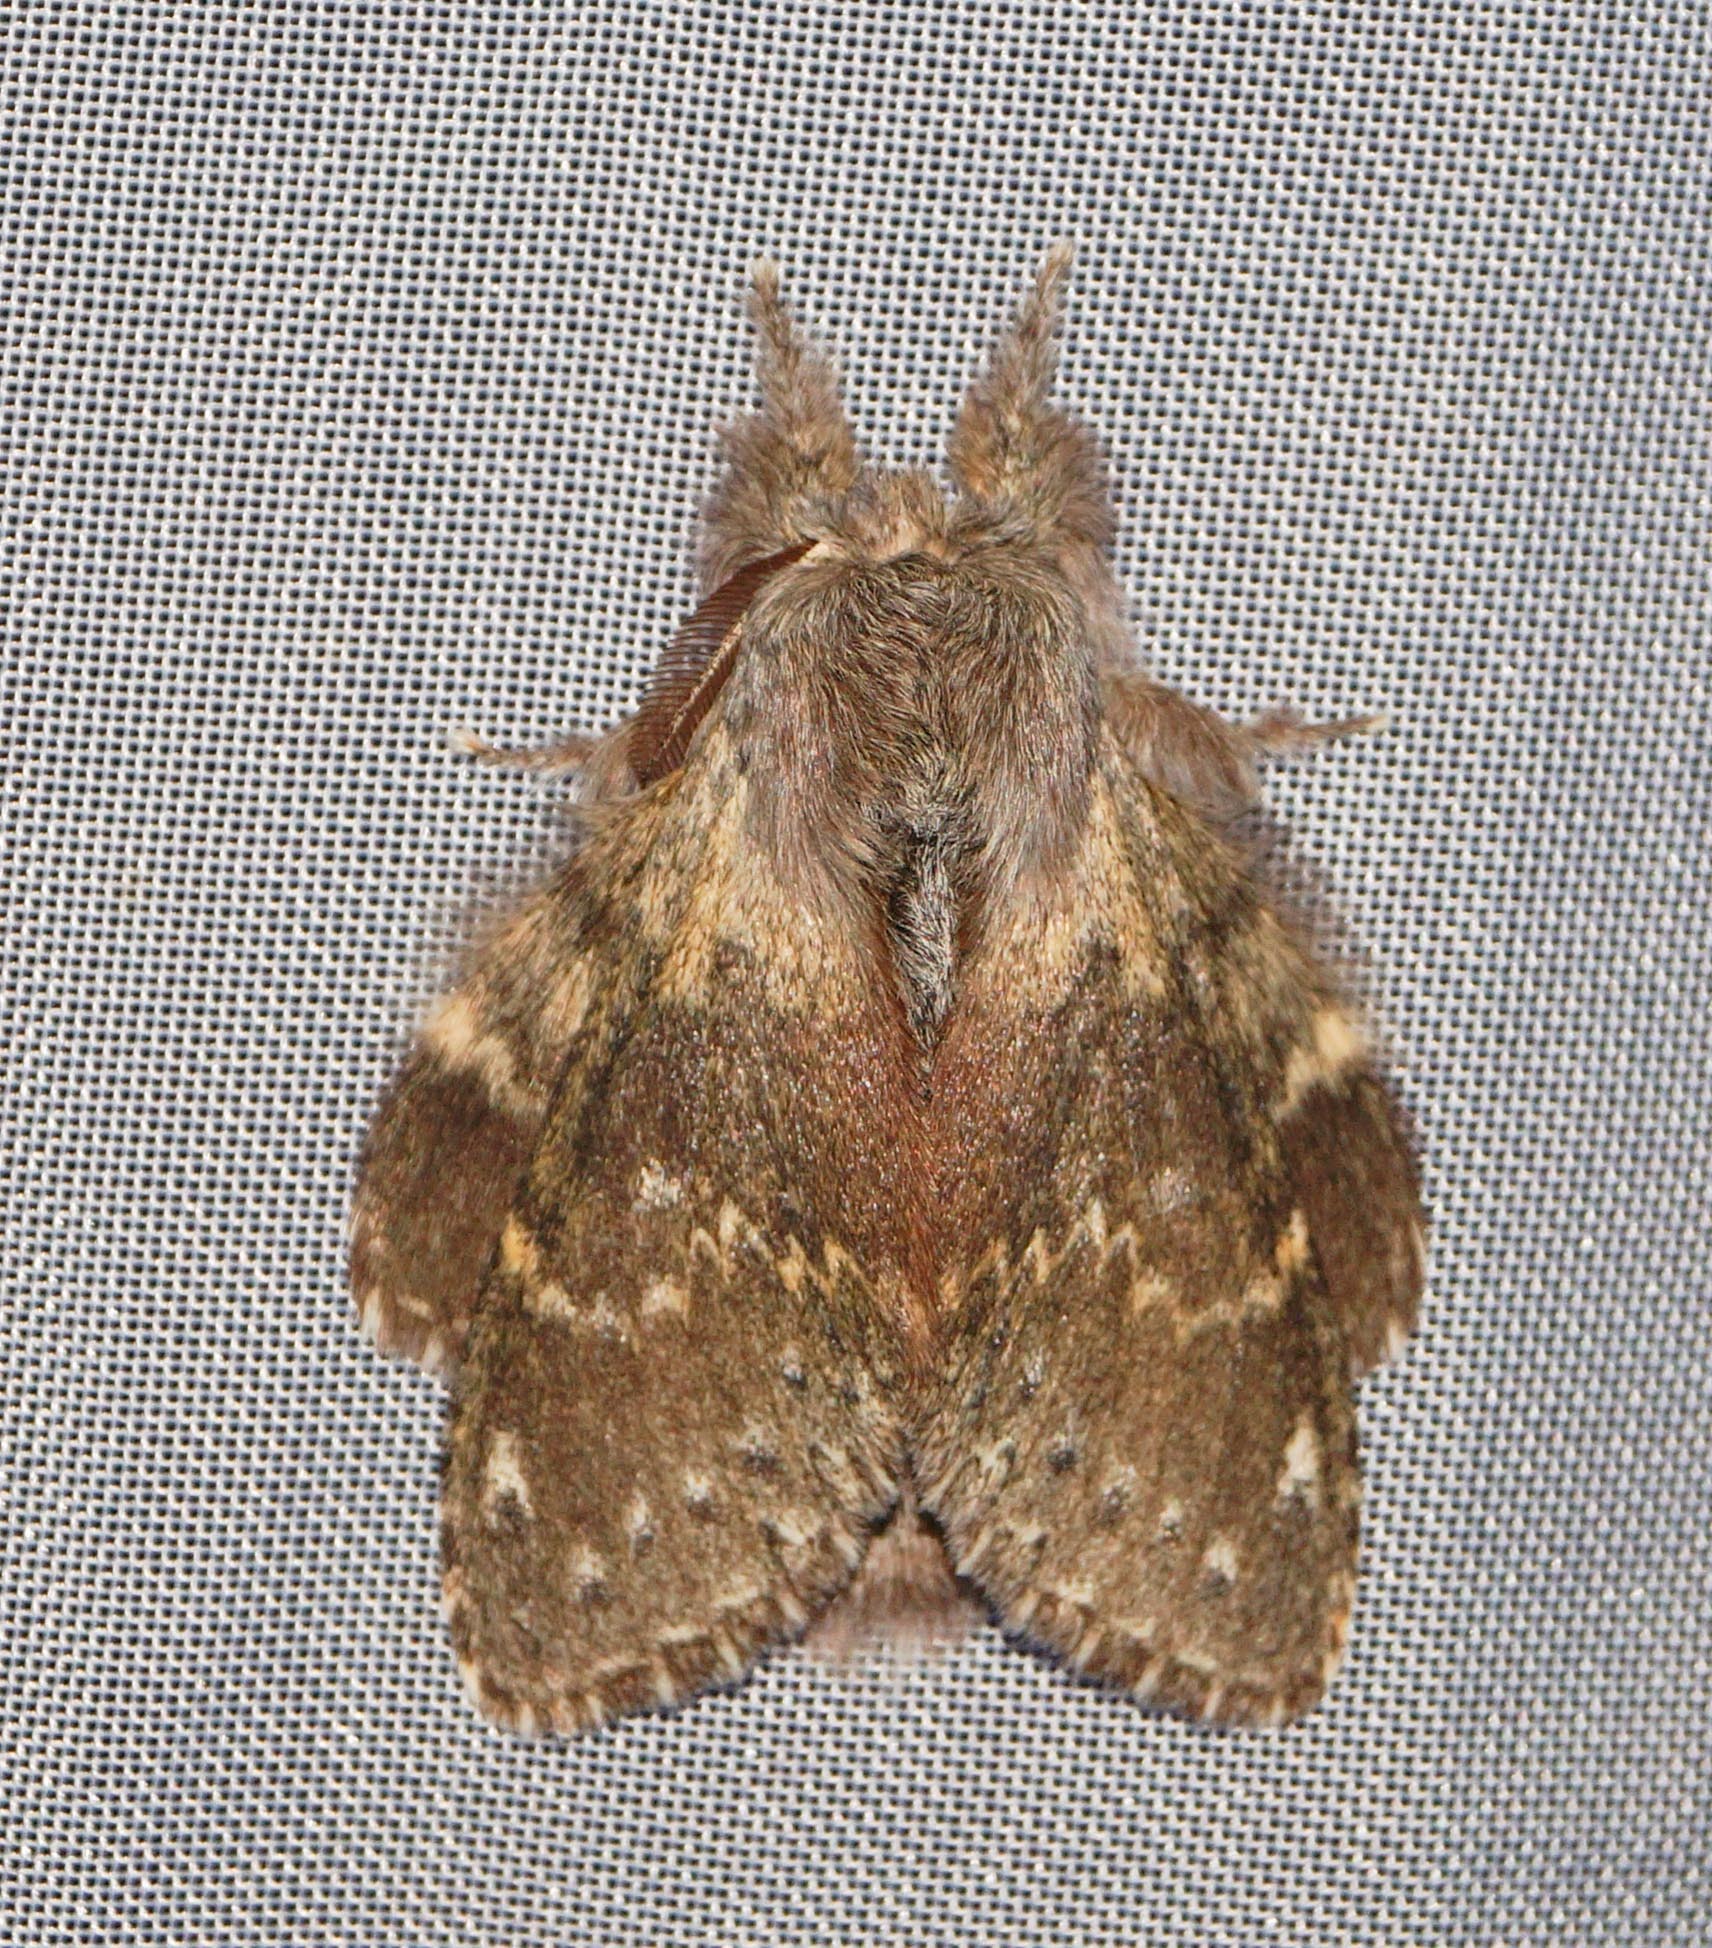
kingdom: Animalia
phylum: Arthropoda
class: Insecta
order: Lepidoptera
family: Notodontidae
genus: Stauropus
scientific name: Stauropus fagi
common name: Lobster moth
